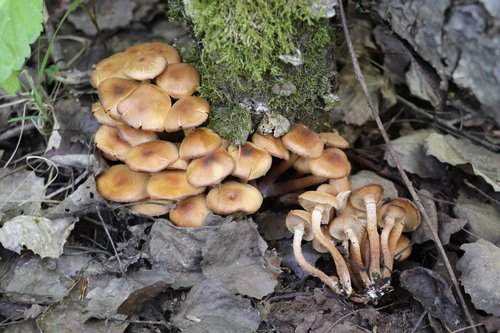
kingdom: Fungi
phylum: Basidiomycota
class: Agaricomycetes
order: Agaricales
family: Strophariaceae
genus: Kuehneromyces
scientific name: Kuehneromyces mutabilis
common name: Sheathed woodtuft
